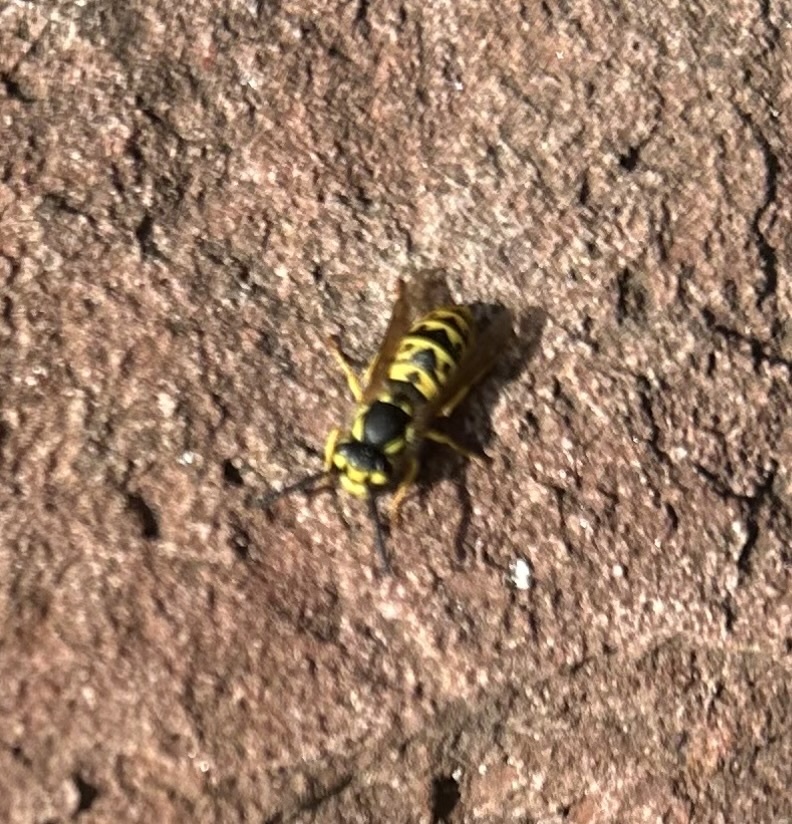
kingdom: Animalia
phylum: Arthropoda
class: Insecta
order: Hymenoptera
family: Vespidae
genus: Vespula
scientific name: Vespula germanica
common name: German wasp
